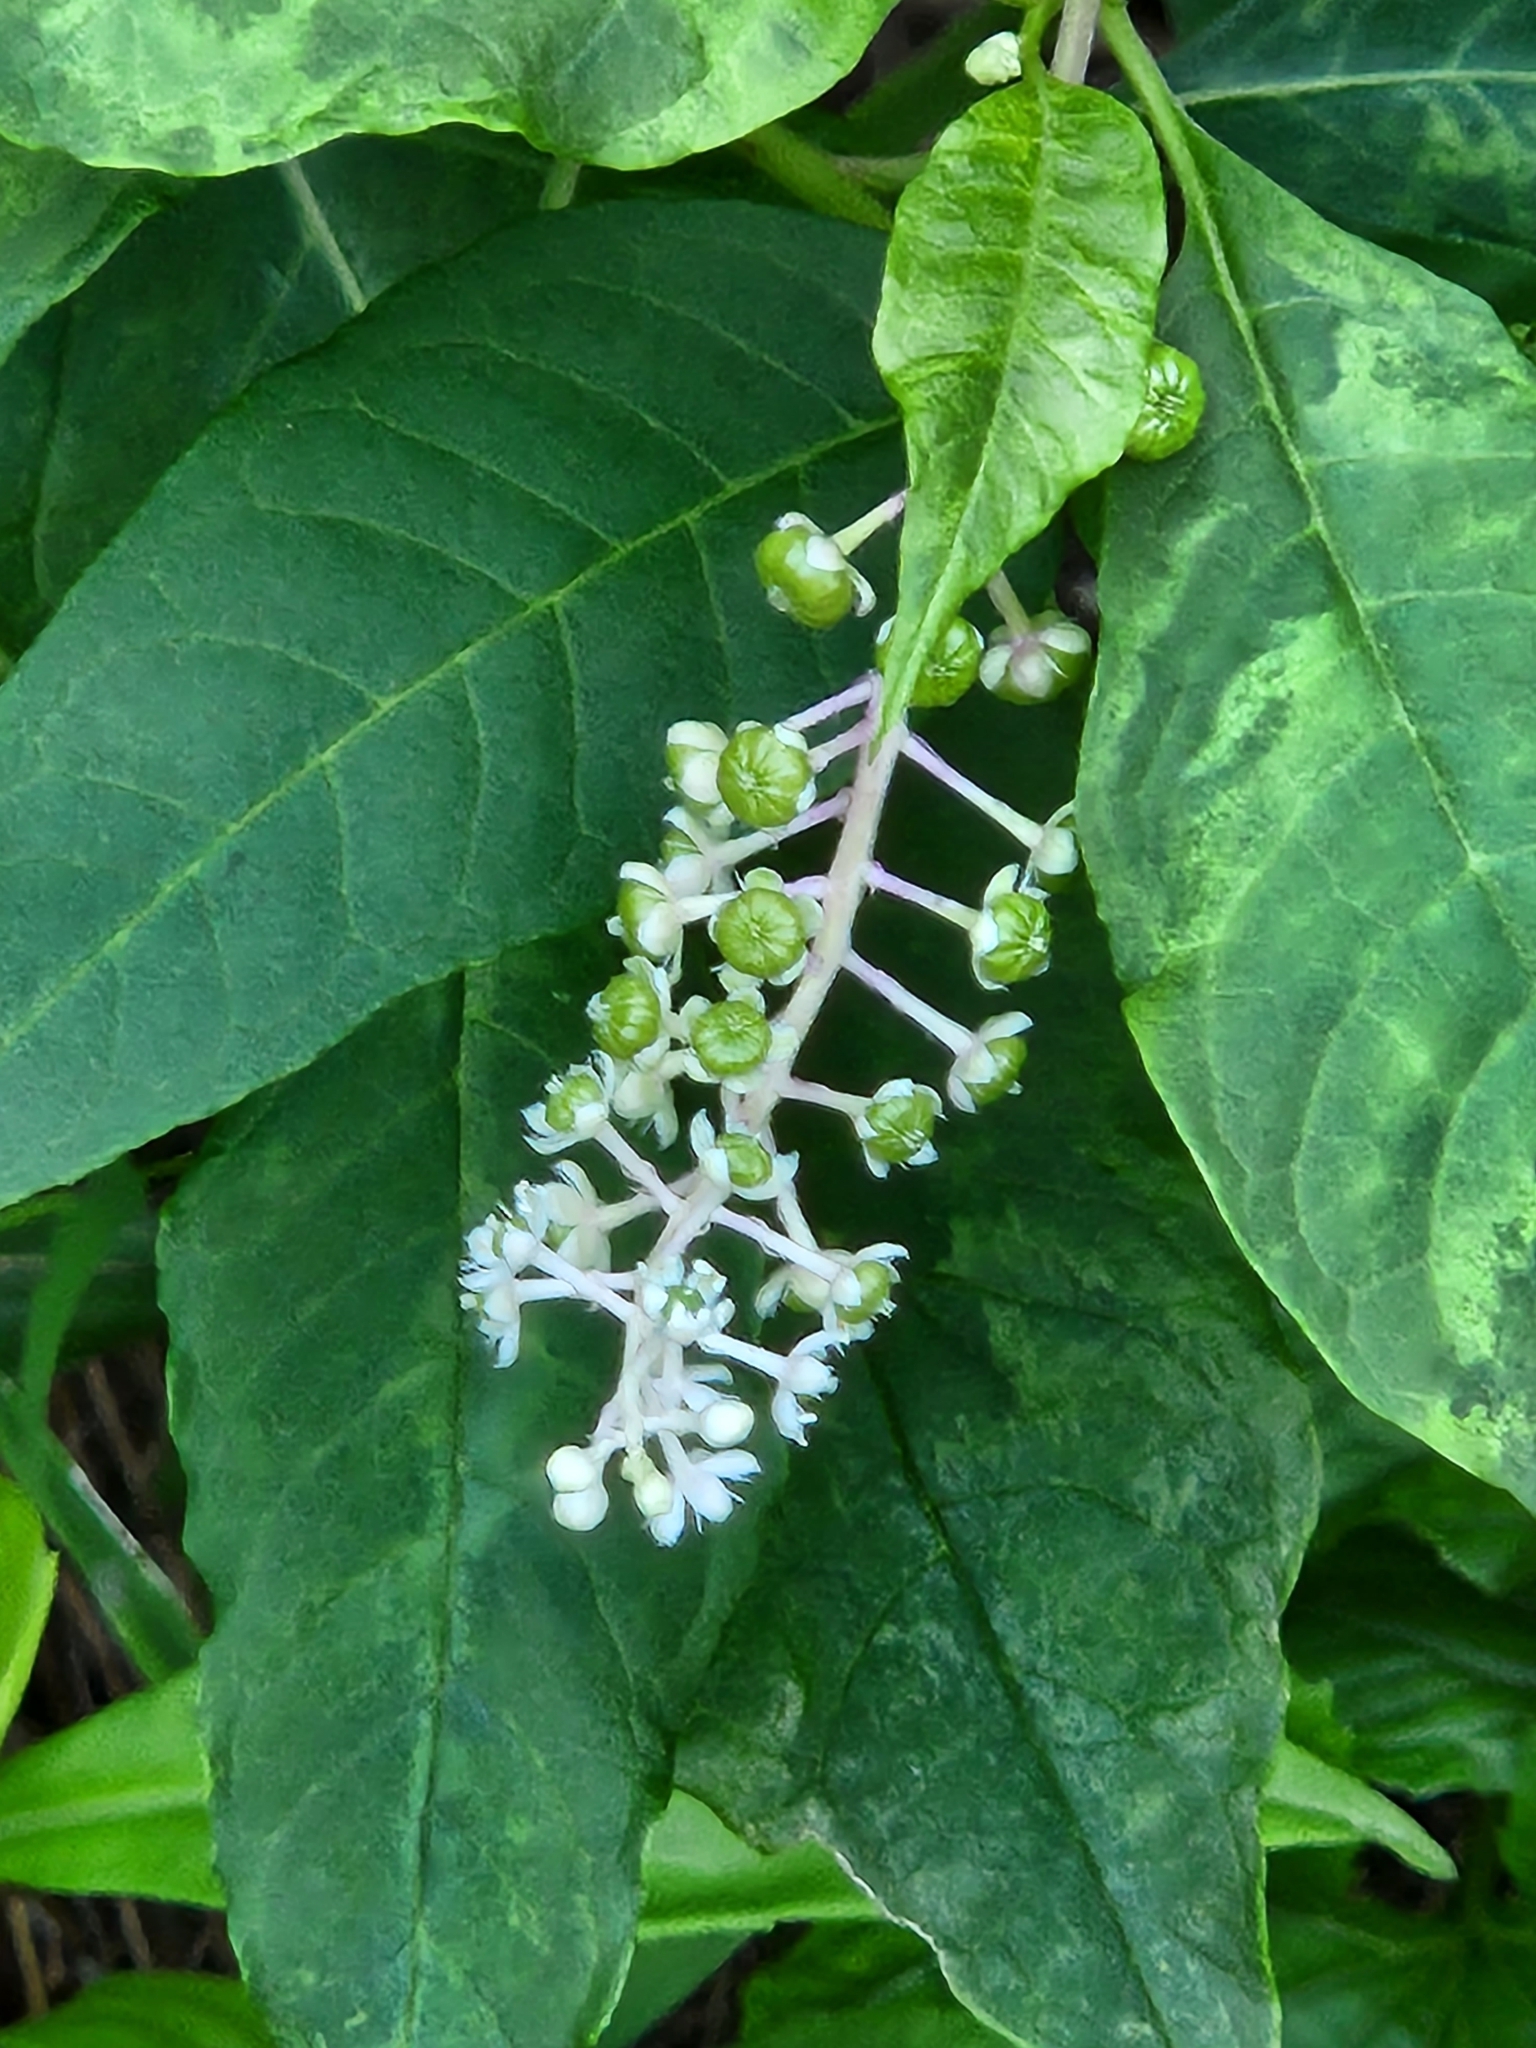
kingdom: Plantae
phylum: Tracheophyta
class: Magnoliopsida
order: Caryophyllales
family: Phytolaccaceae
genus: Phytolacca
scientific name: Phytolacca americana
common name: American pokeweed
